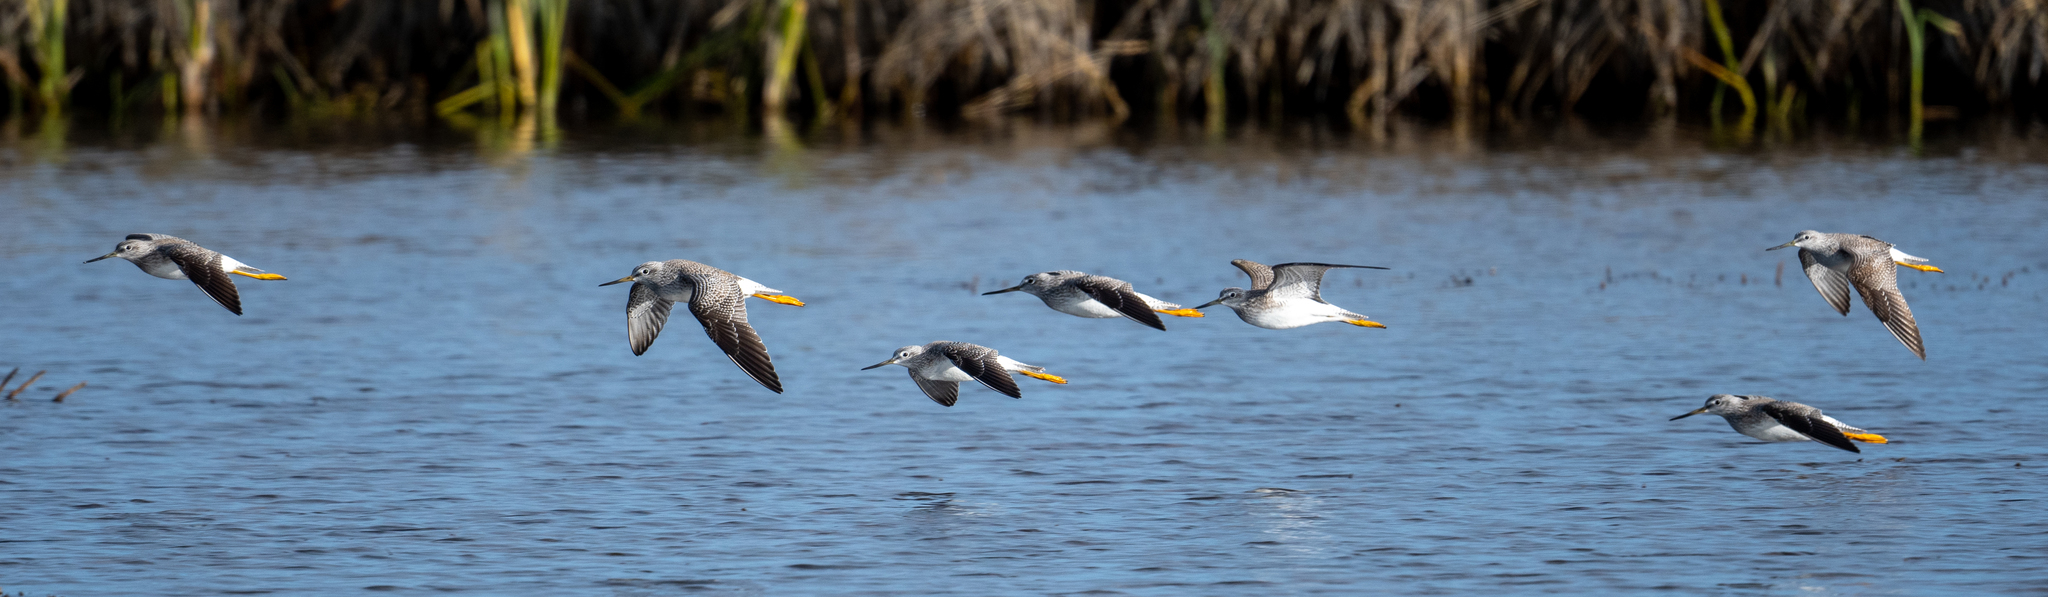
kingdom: Animalia
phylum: Chordata
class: Aves
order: Charadriiformes
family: Scolopacidae
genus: Tringa
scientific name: Tringa melanoleuca
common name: Greater yellowlegs
